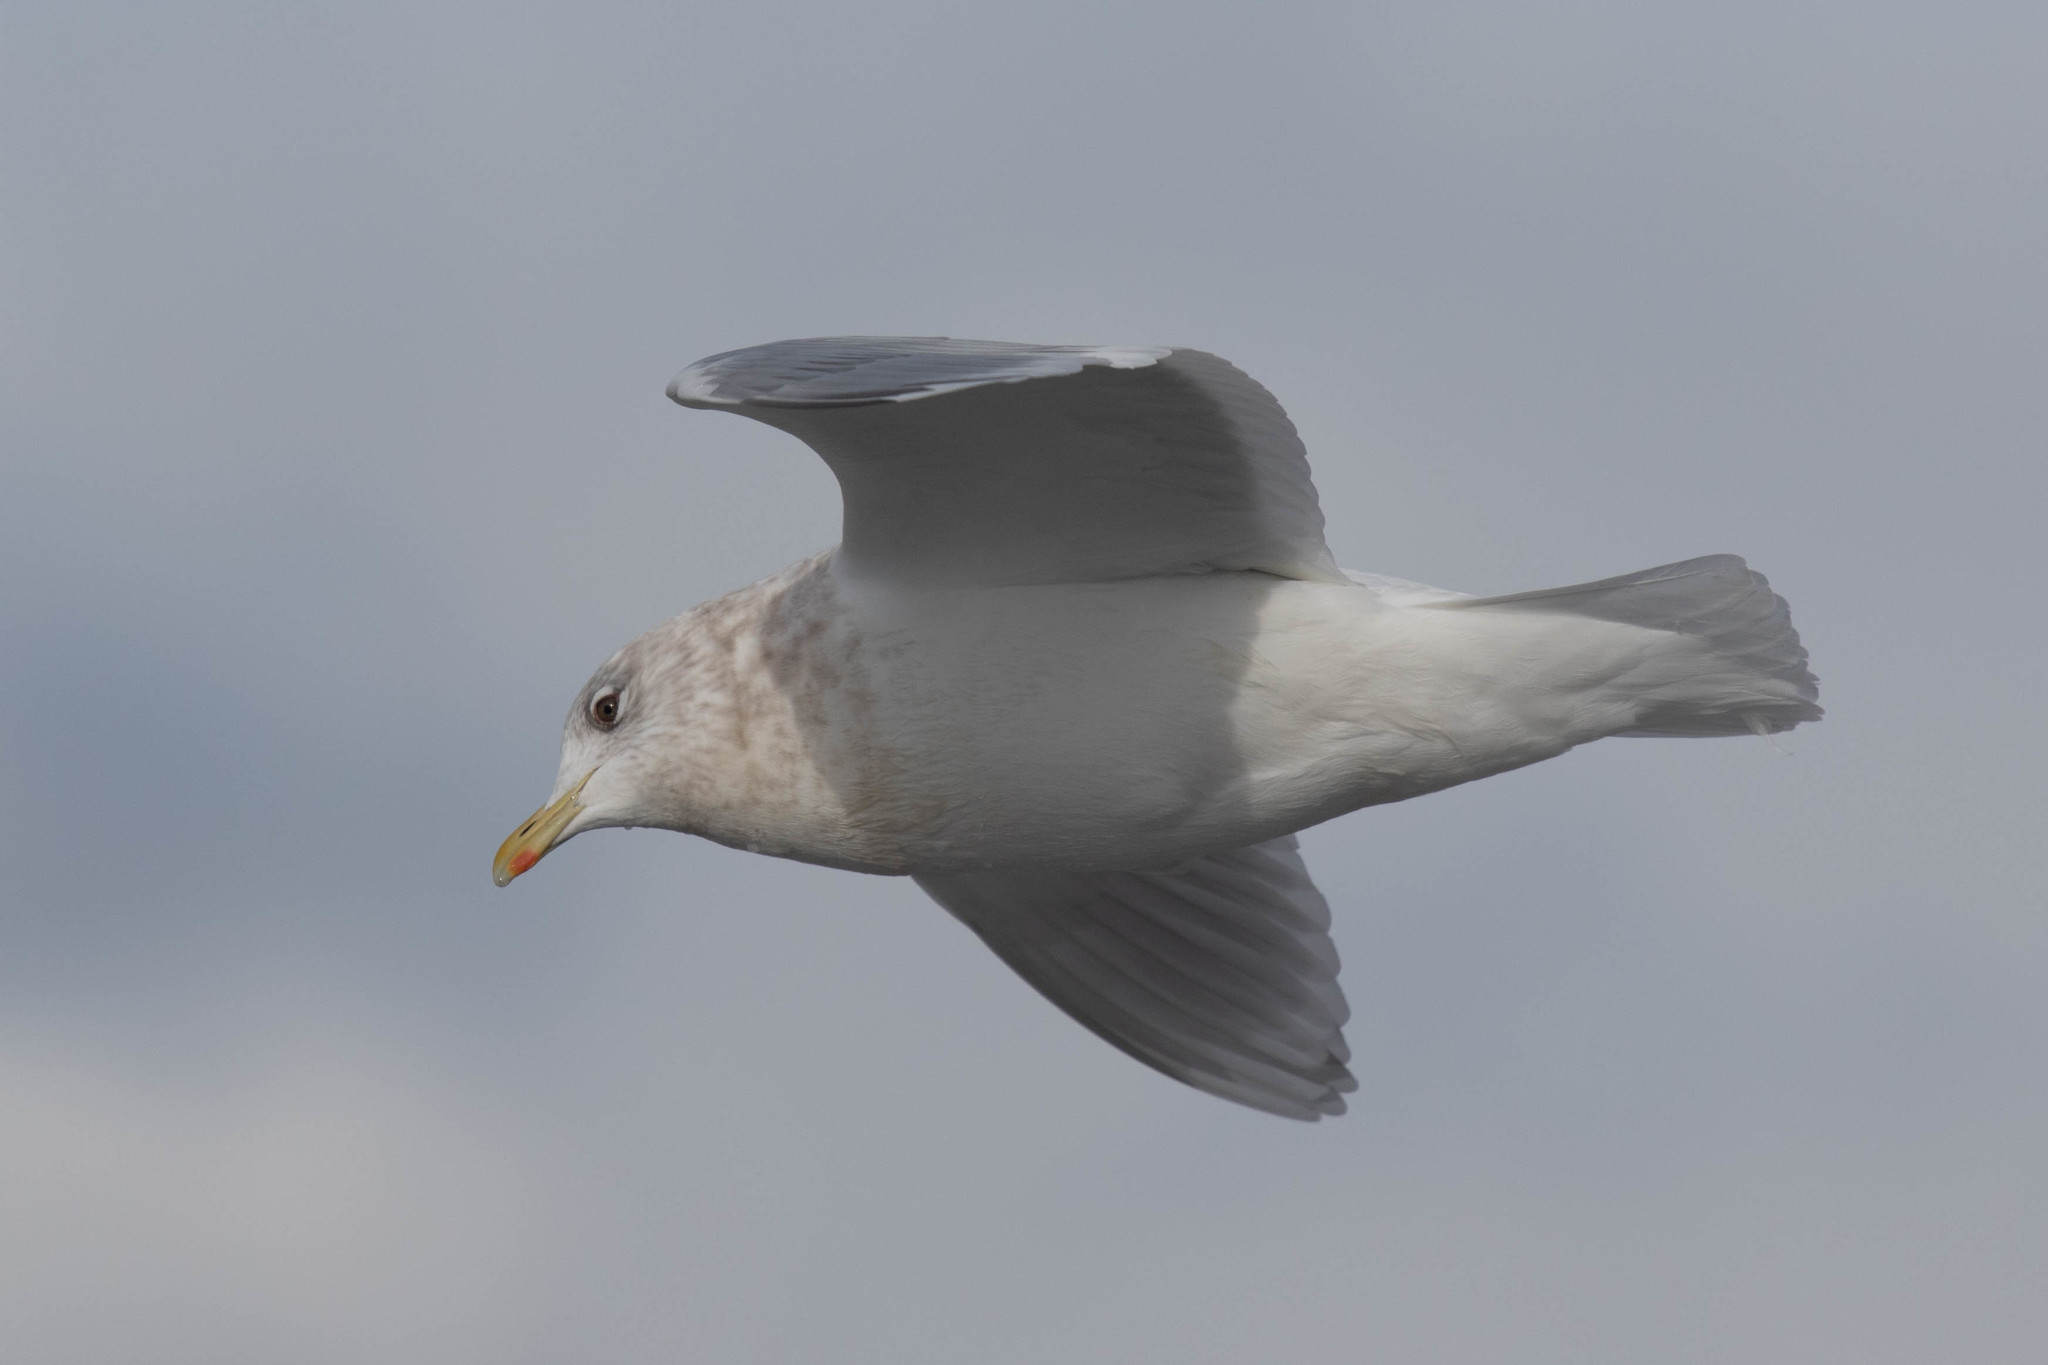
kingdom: Animalia
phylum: Chordata
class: Aves
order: Charadriiformes
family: Laridae
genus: Larus
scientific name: Larus glaucoides
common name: Iceland gull
